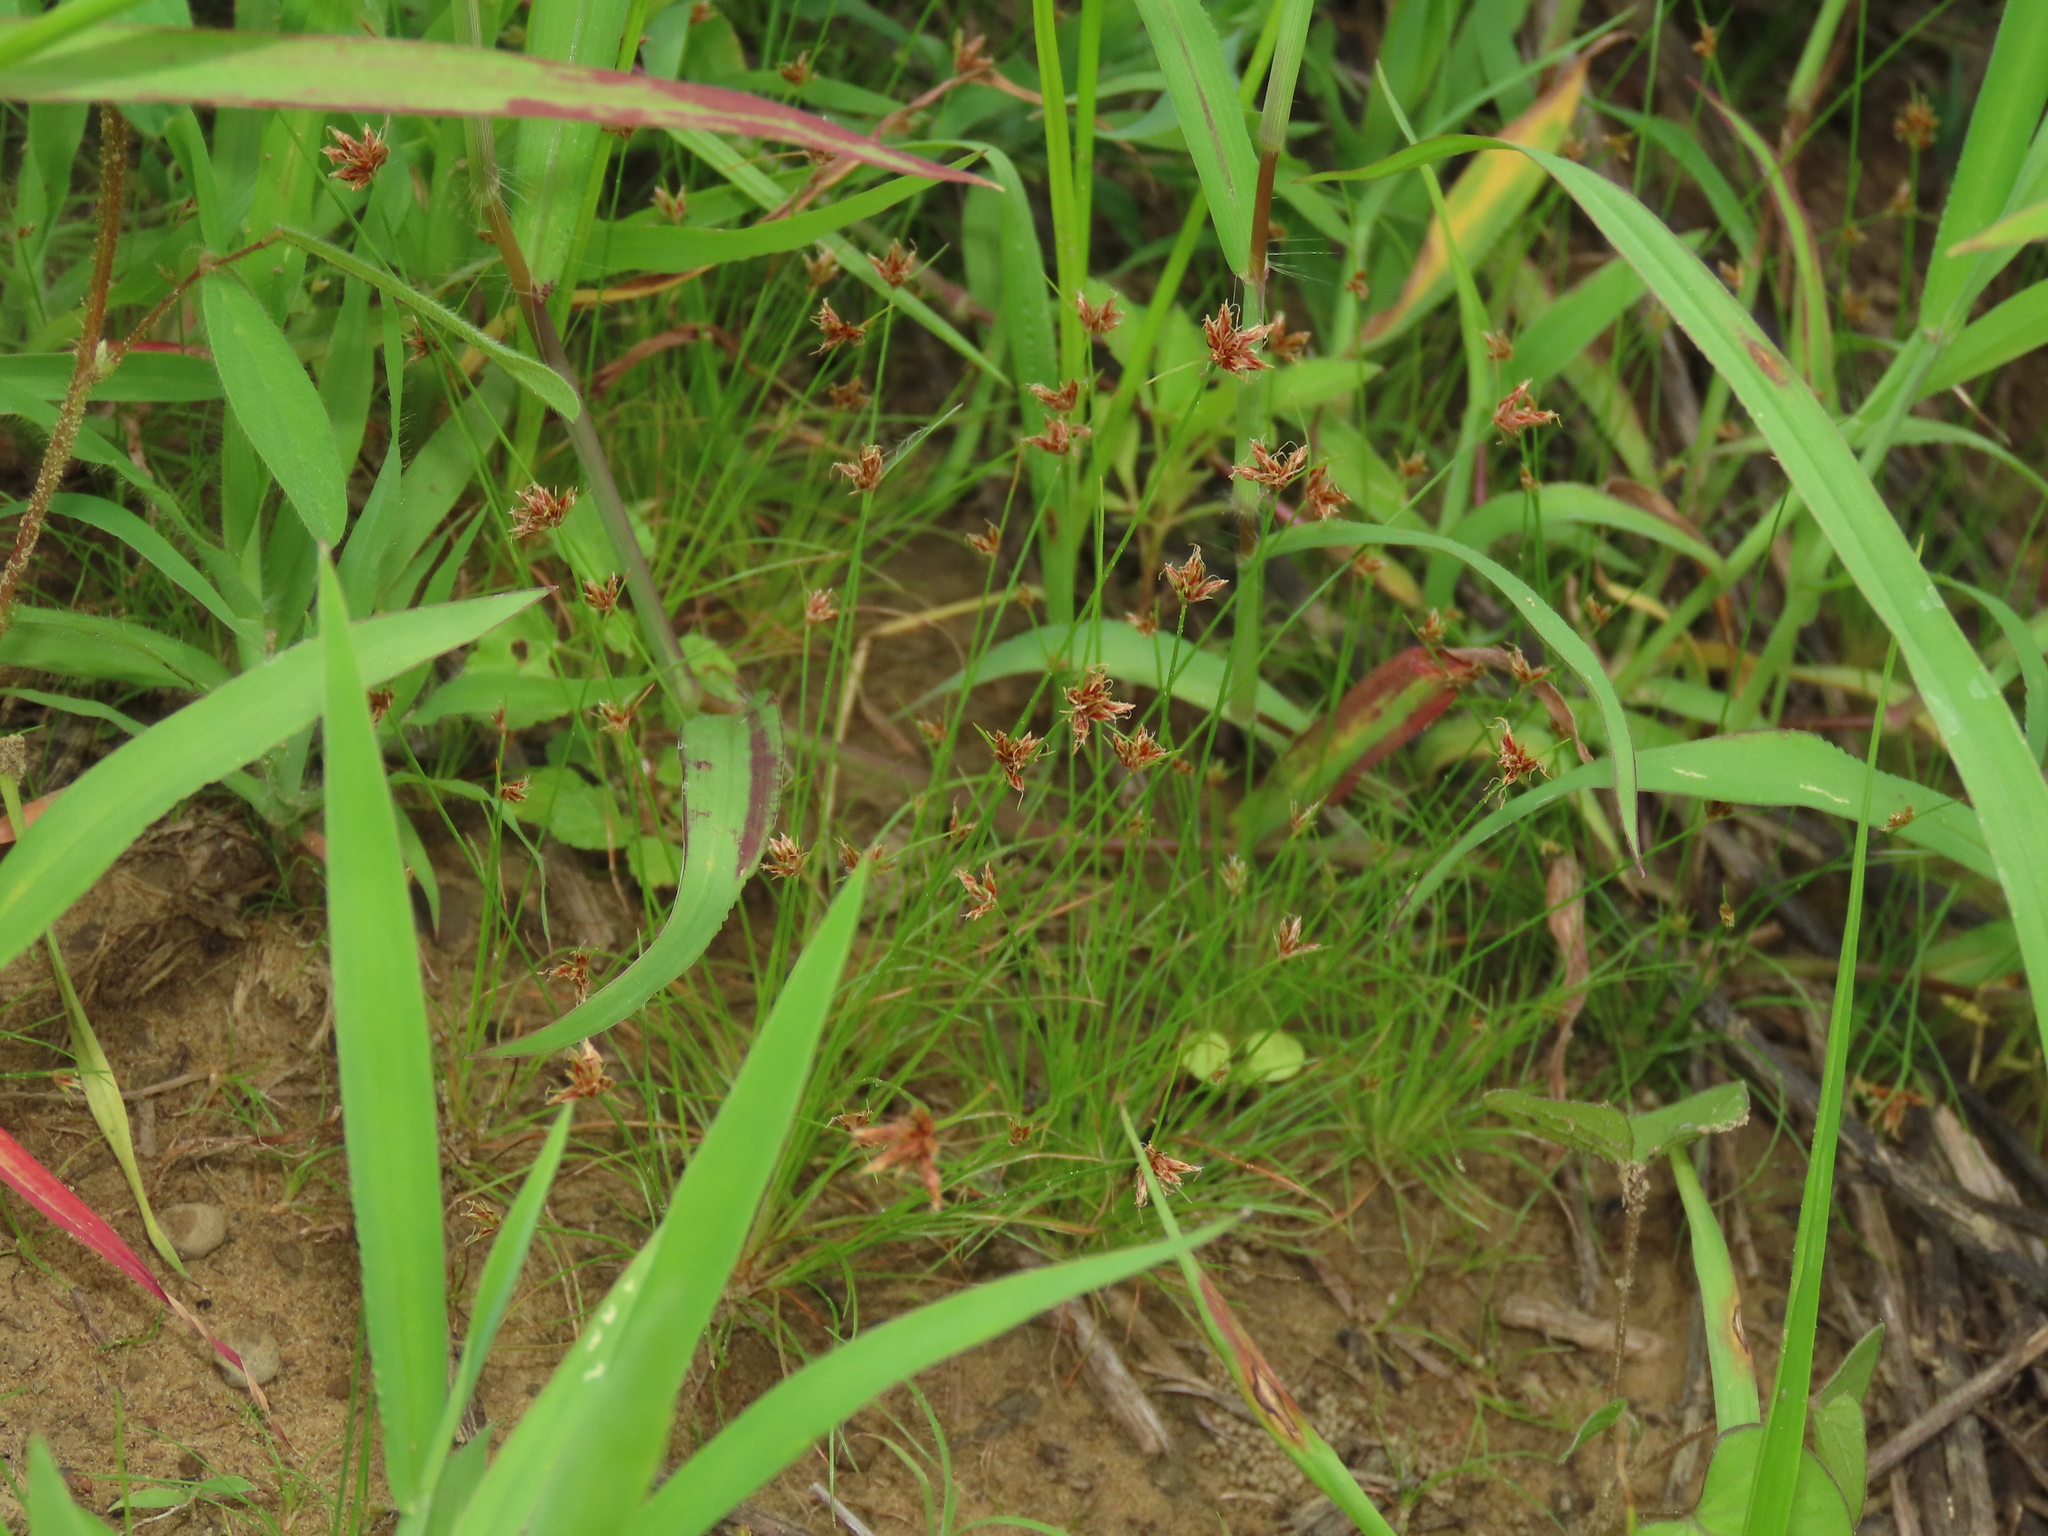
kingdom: Plantae
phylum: Tracheophyta
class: Liliopsida
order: Poales
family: Cyperaceae
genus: Bulbostylis
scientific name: Bulbostylis barbata
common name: Watergrass
